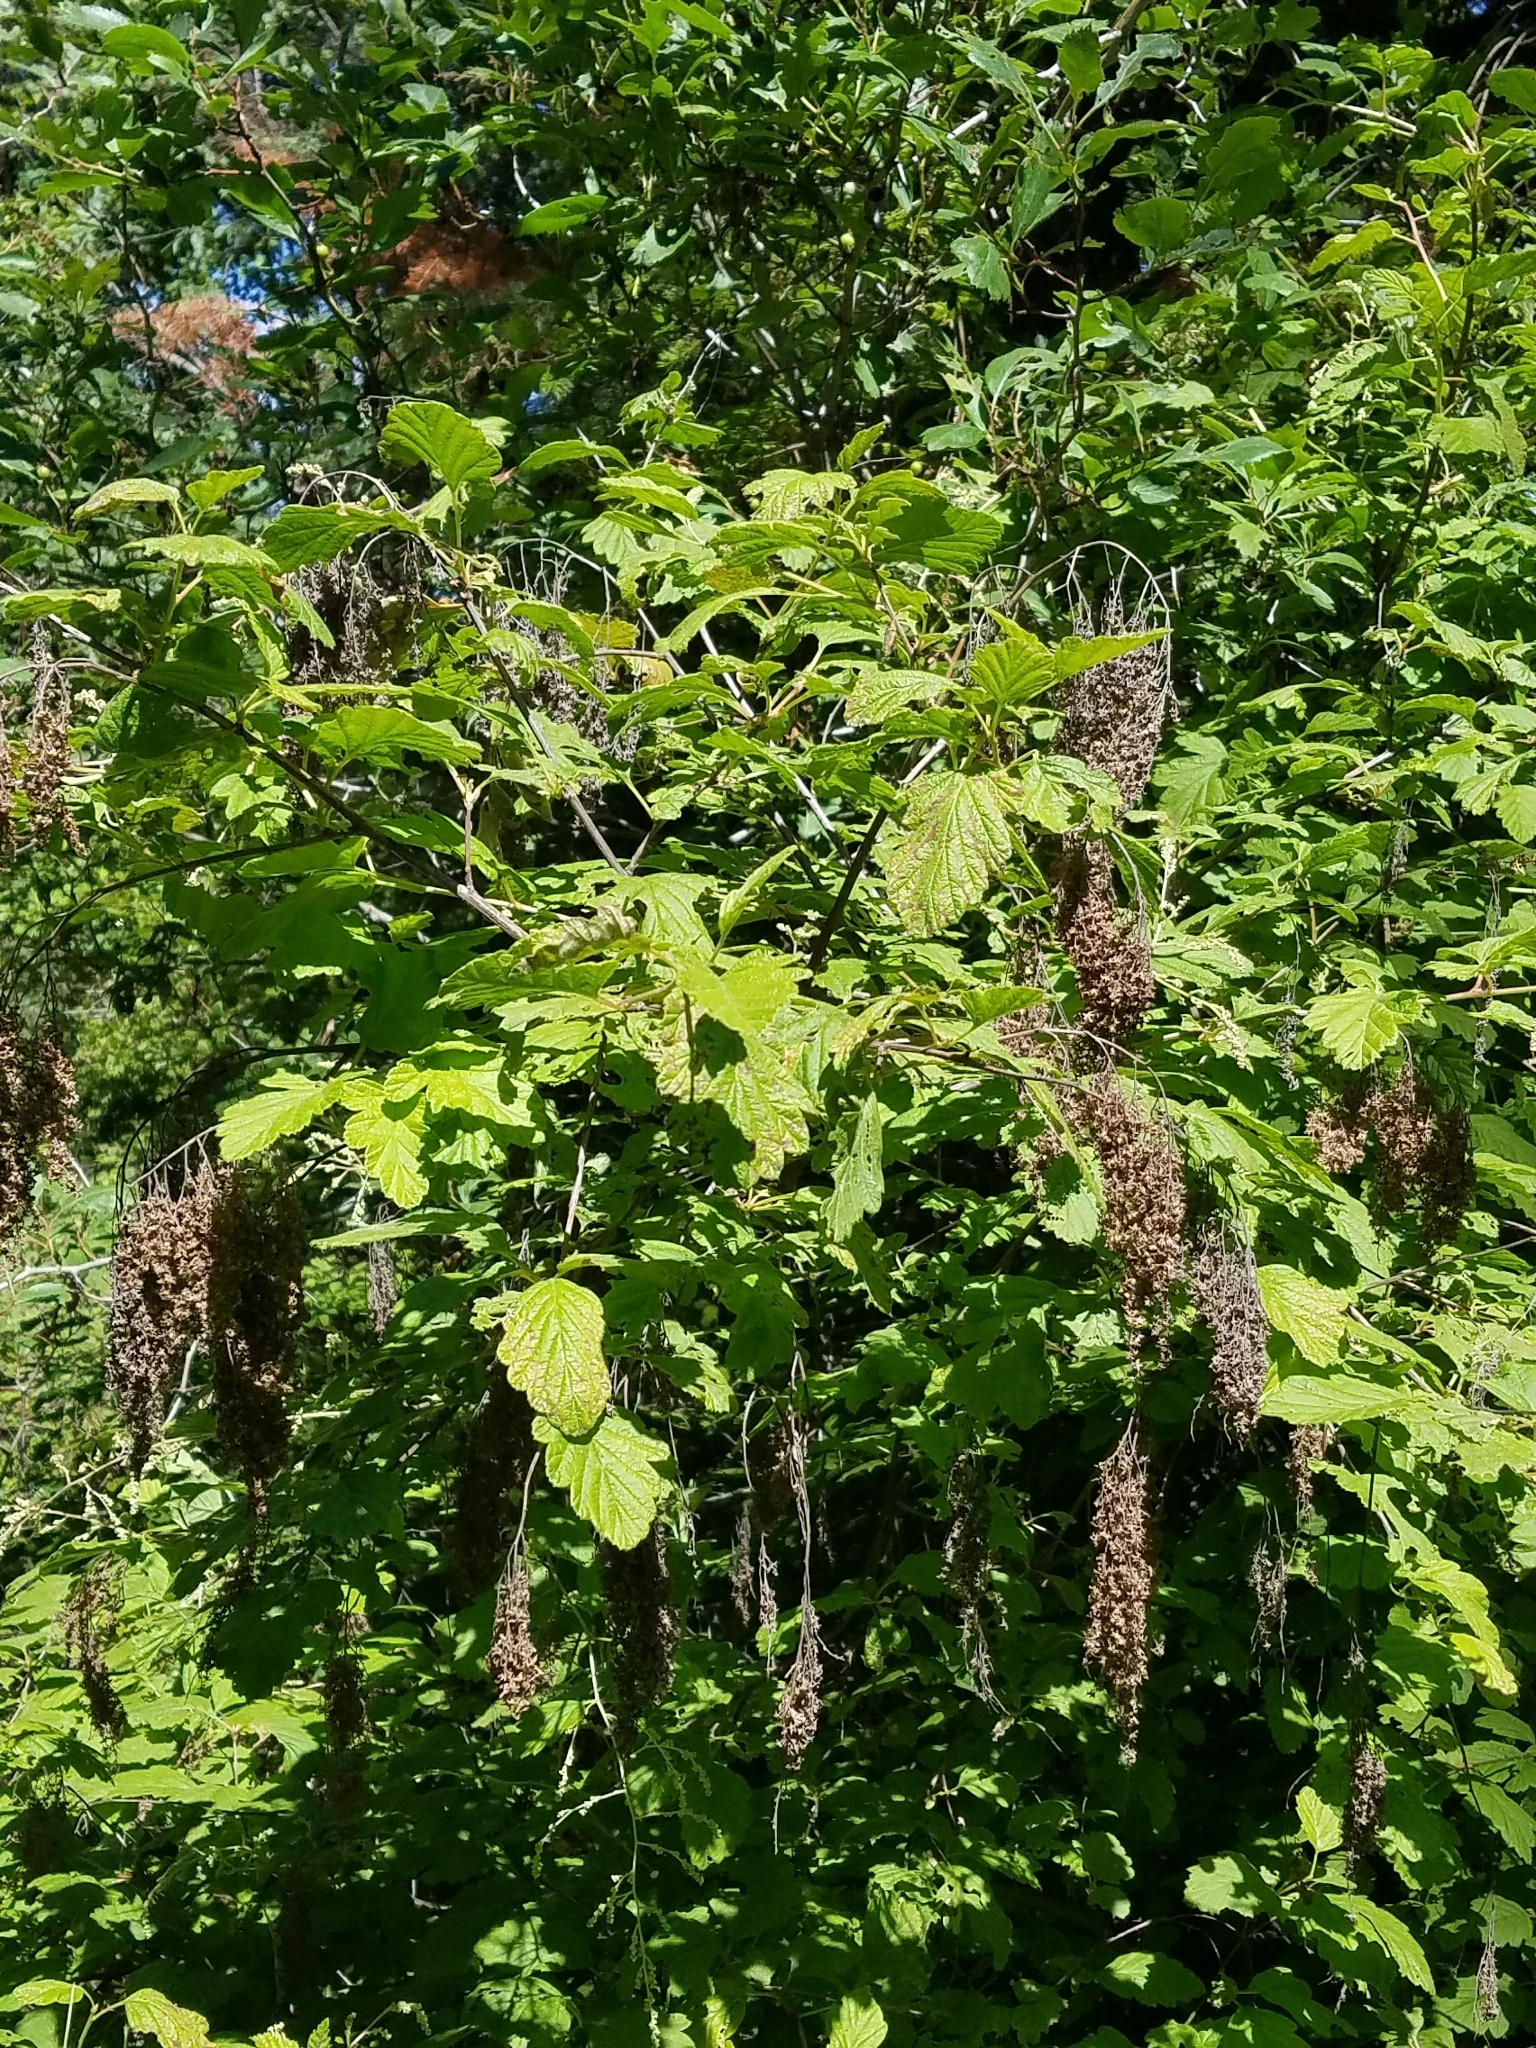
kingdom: Plantae
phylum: Tracheophyta
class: Magnoliopsida
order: Rosales
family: Rosaceae
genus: Holodiscus
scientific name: Holodiscus discolor
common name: Oceanspray
